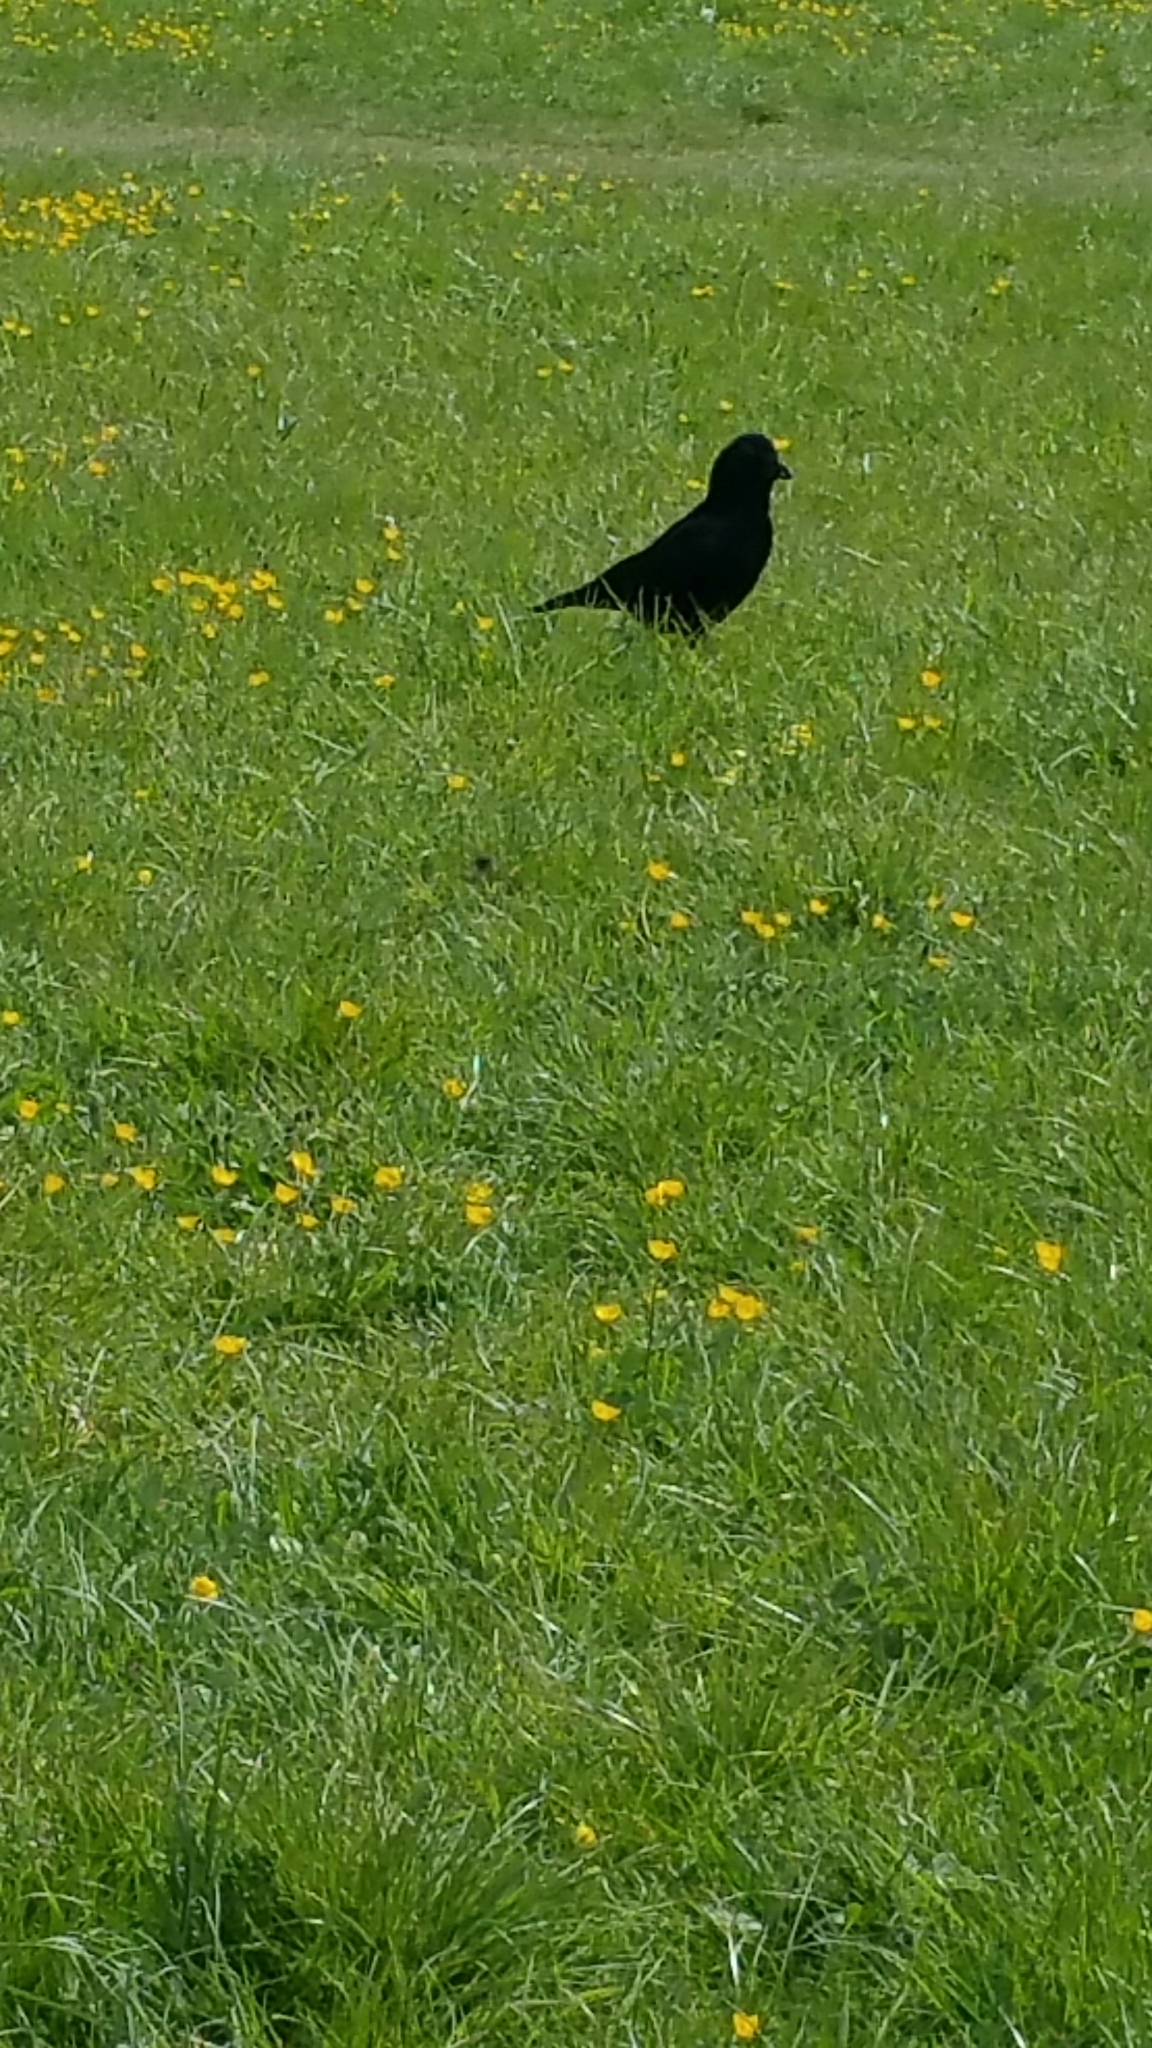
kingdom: Animalia
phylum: Chordata
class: Aves
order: Passeriformes
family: Corvidae
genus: Corvus
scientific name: Corvus corone
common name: Carrion crow
